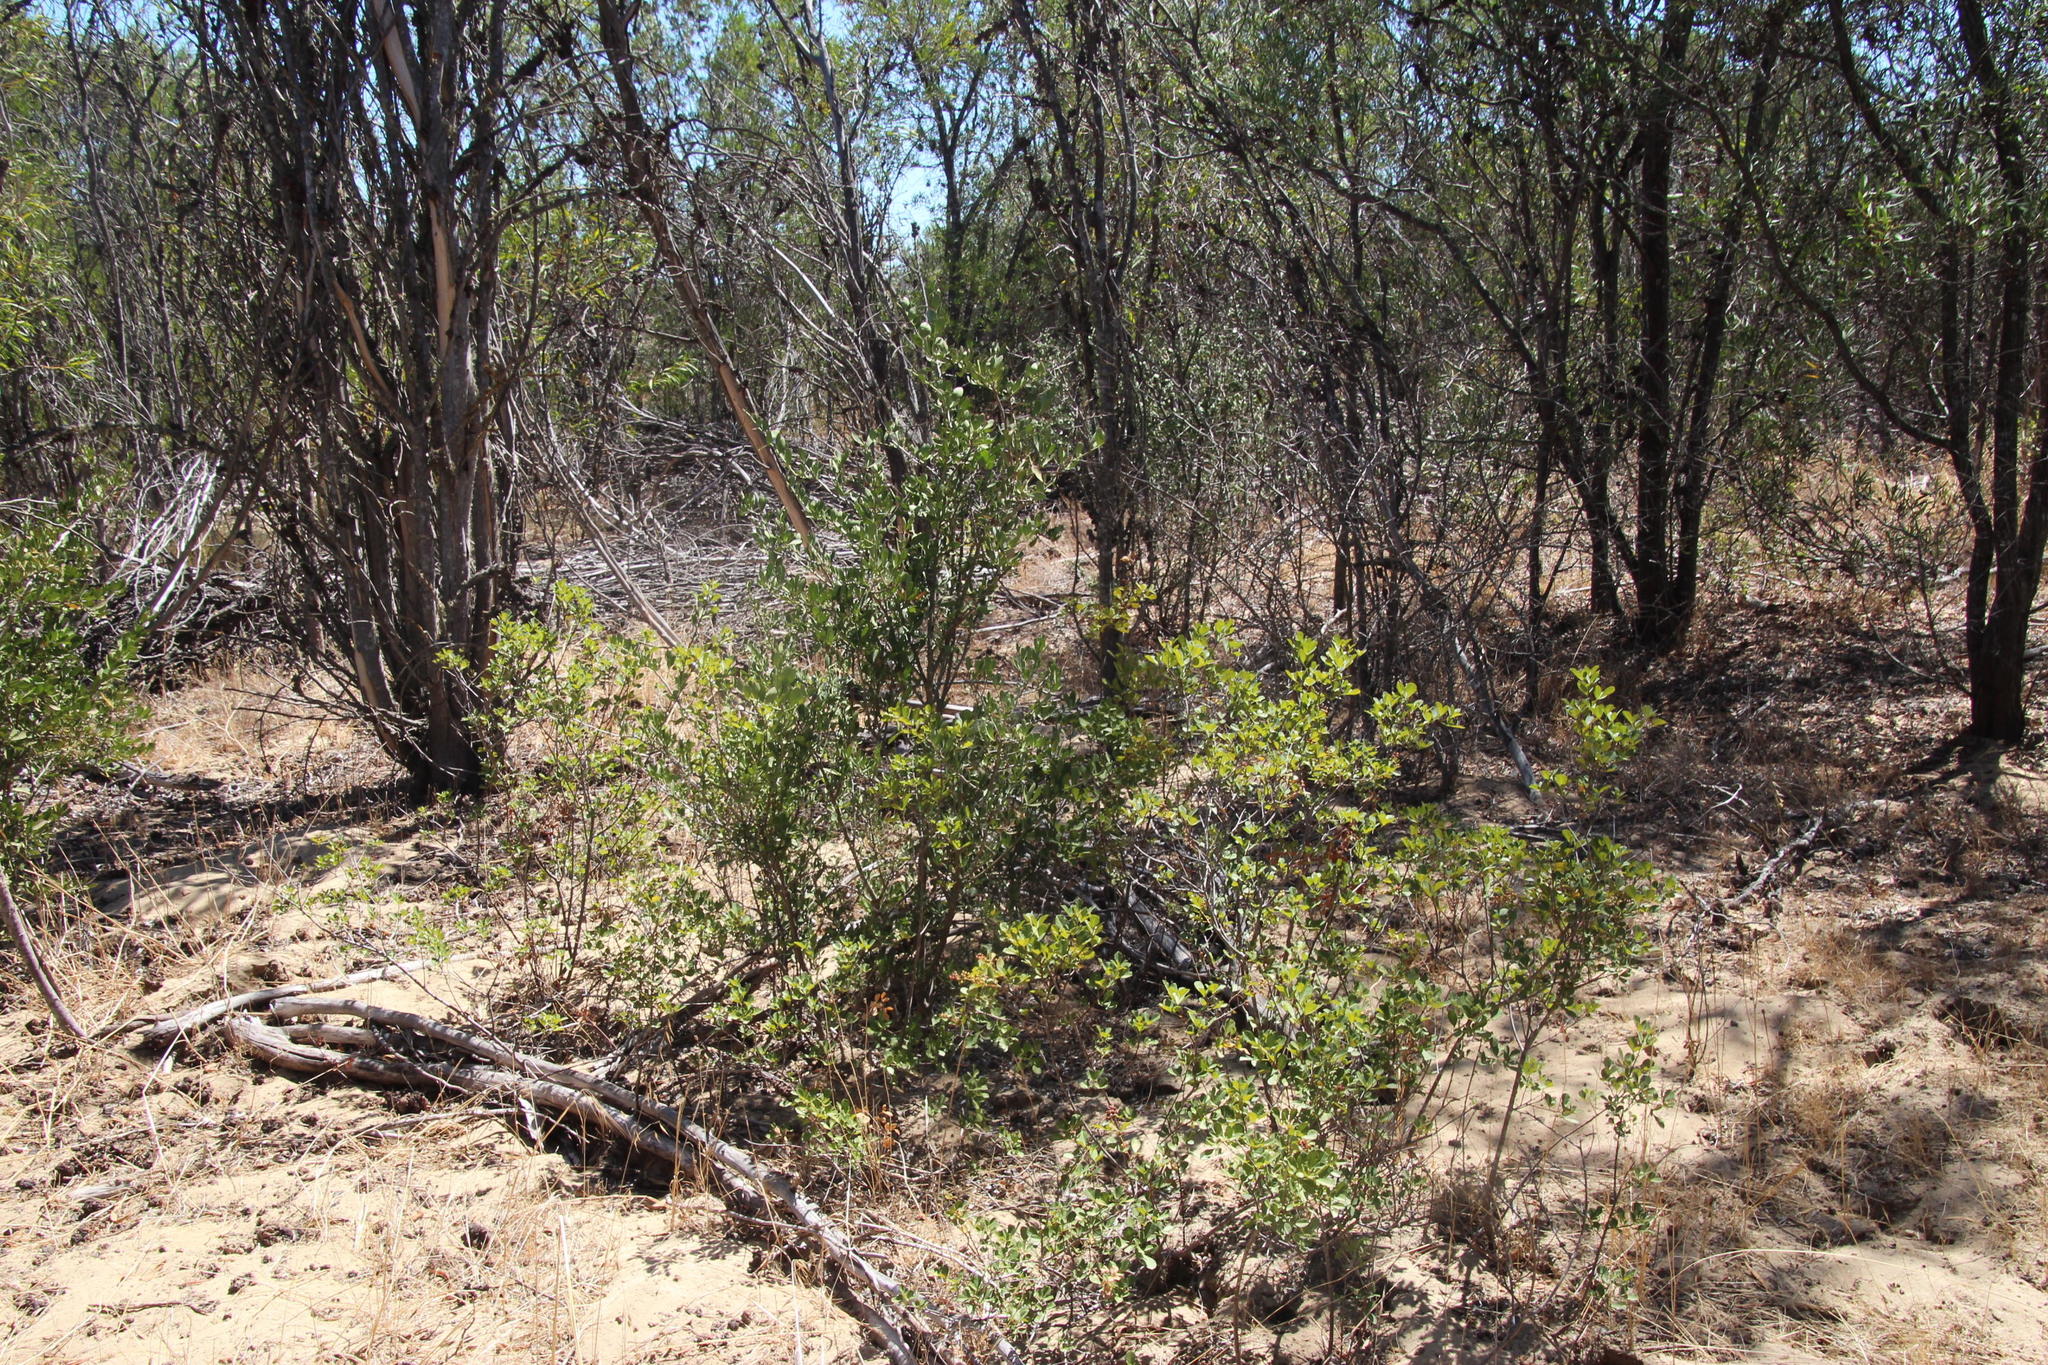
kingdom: Plantae
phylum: Tracheophyta
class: Magnoliopsida
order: Celastrales
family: Celastraceae
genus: Gymnosporia
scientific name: Gymnosporia buxifolia
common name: Common spike-thorn
